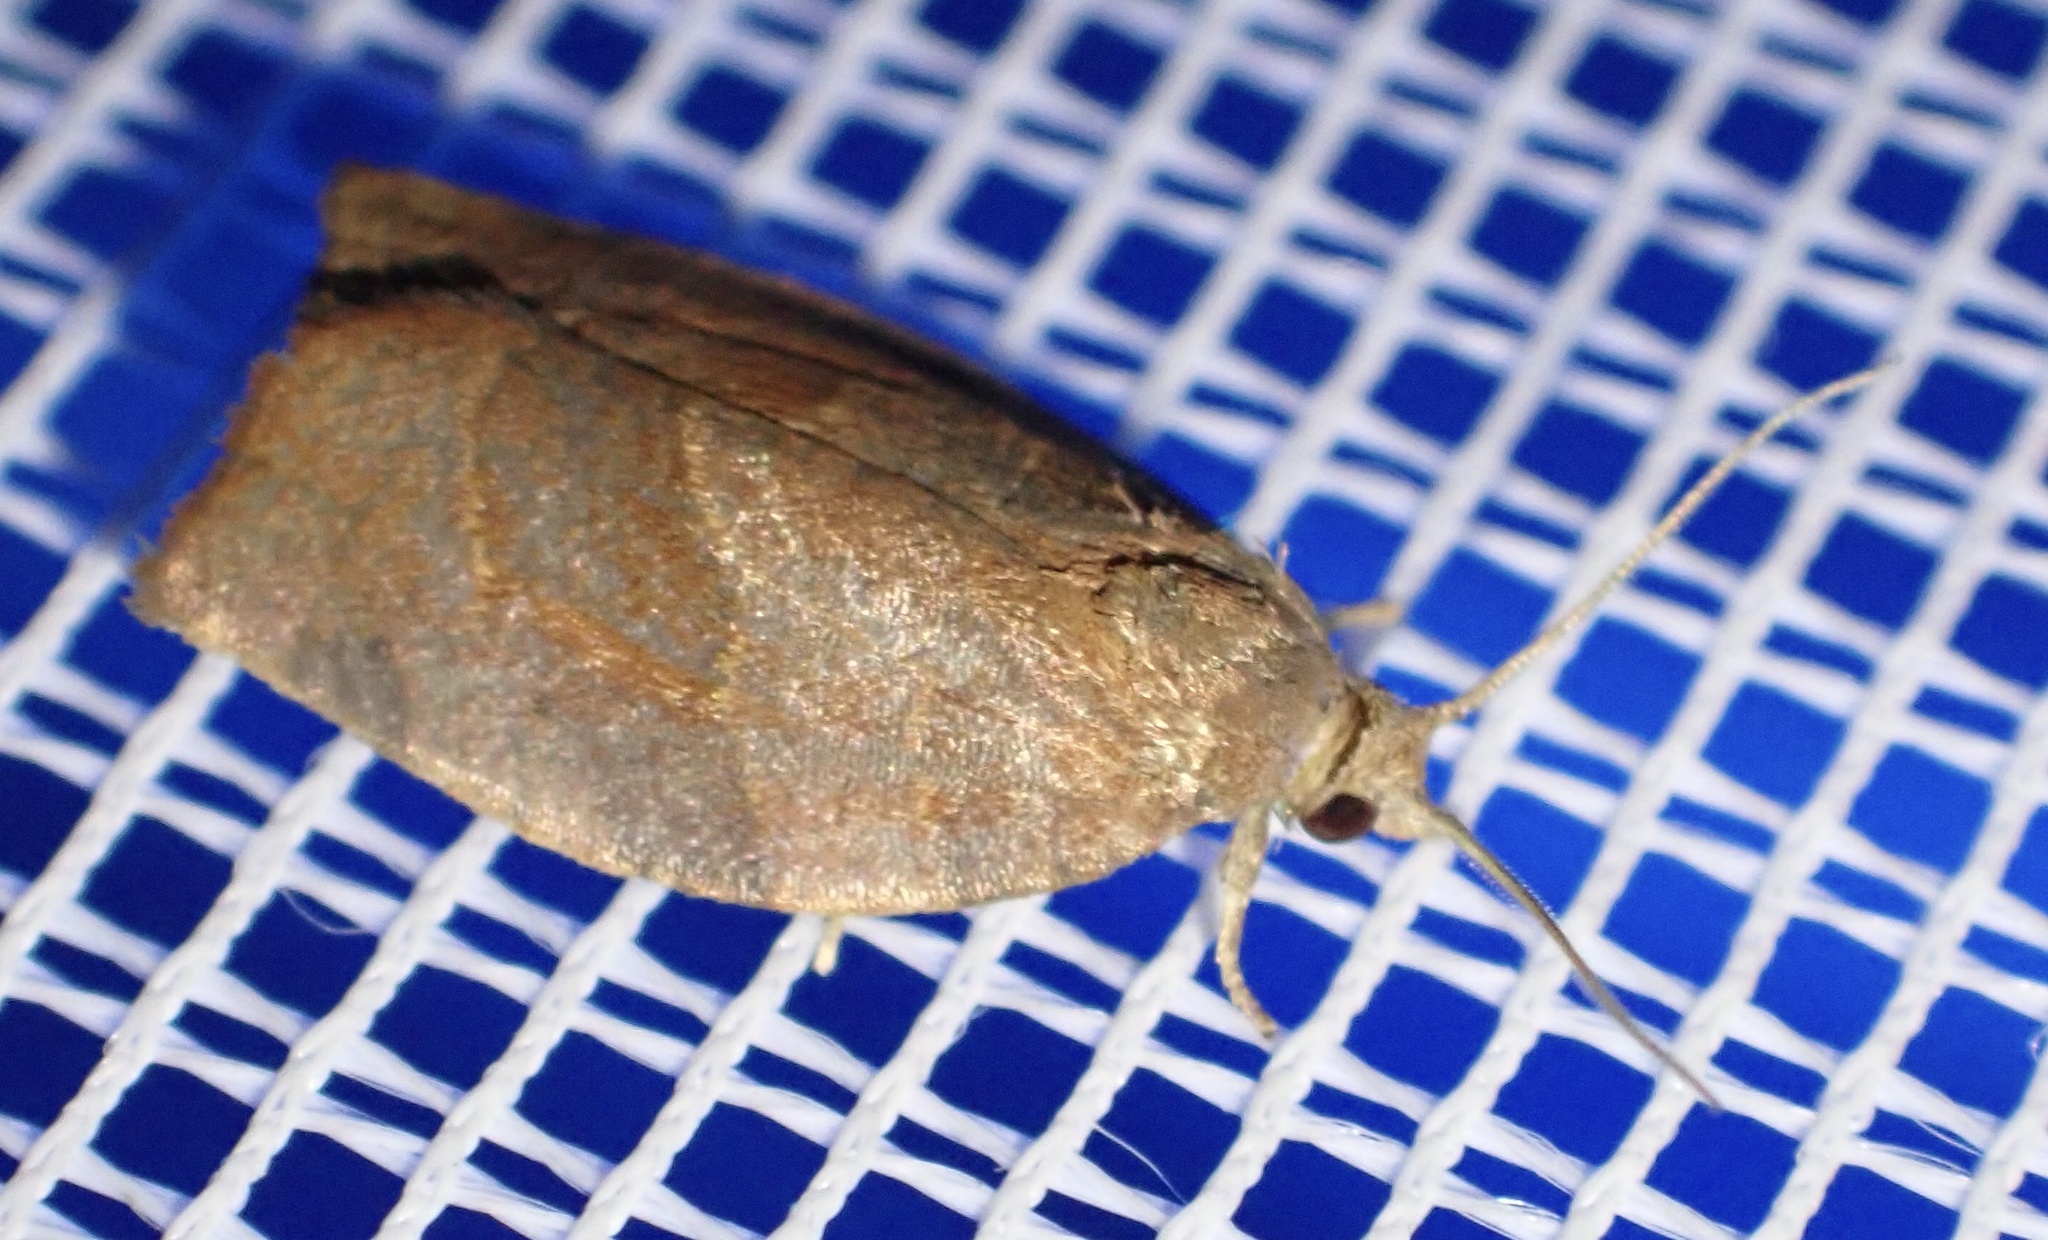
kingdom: Animalia
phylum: Arthropoda
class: Insecta
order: Lepidoptera
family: Tortricidae
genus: Pandemis
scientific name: Pandemis heparana
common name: Dark fruit-tree tortrix
